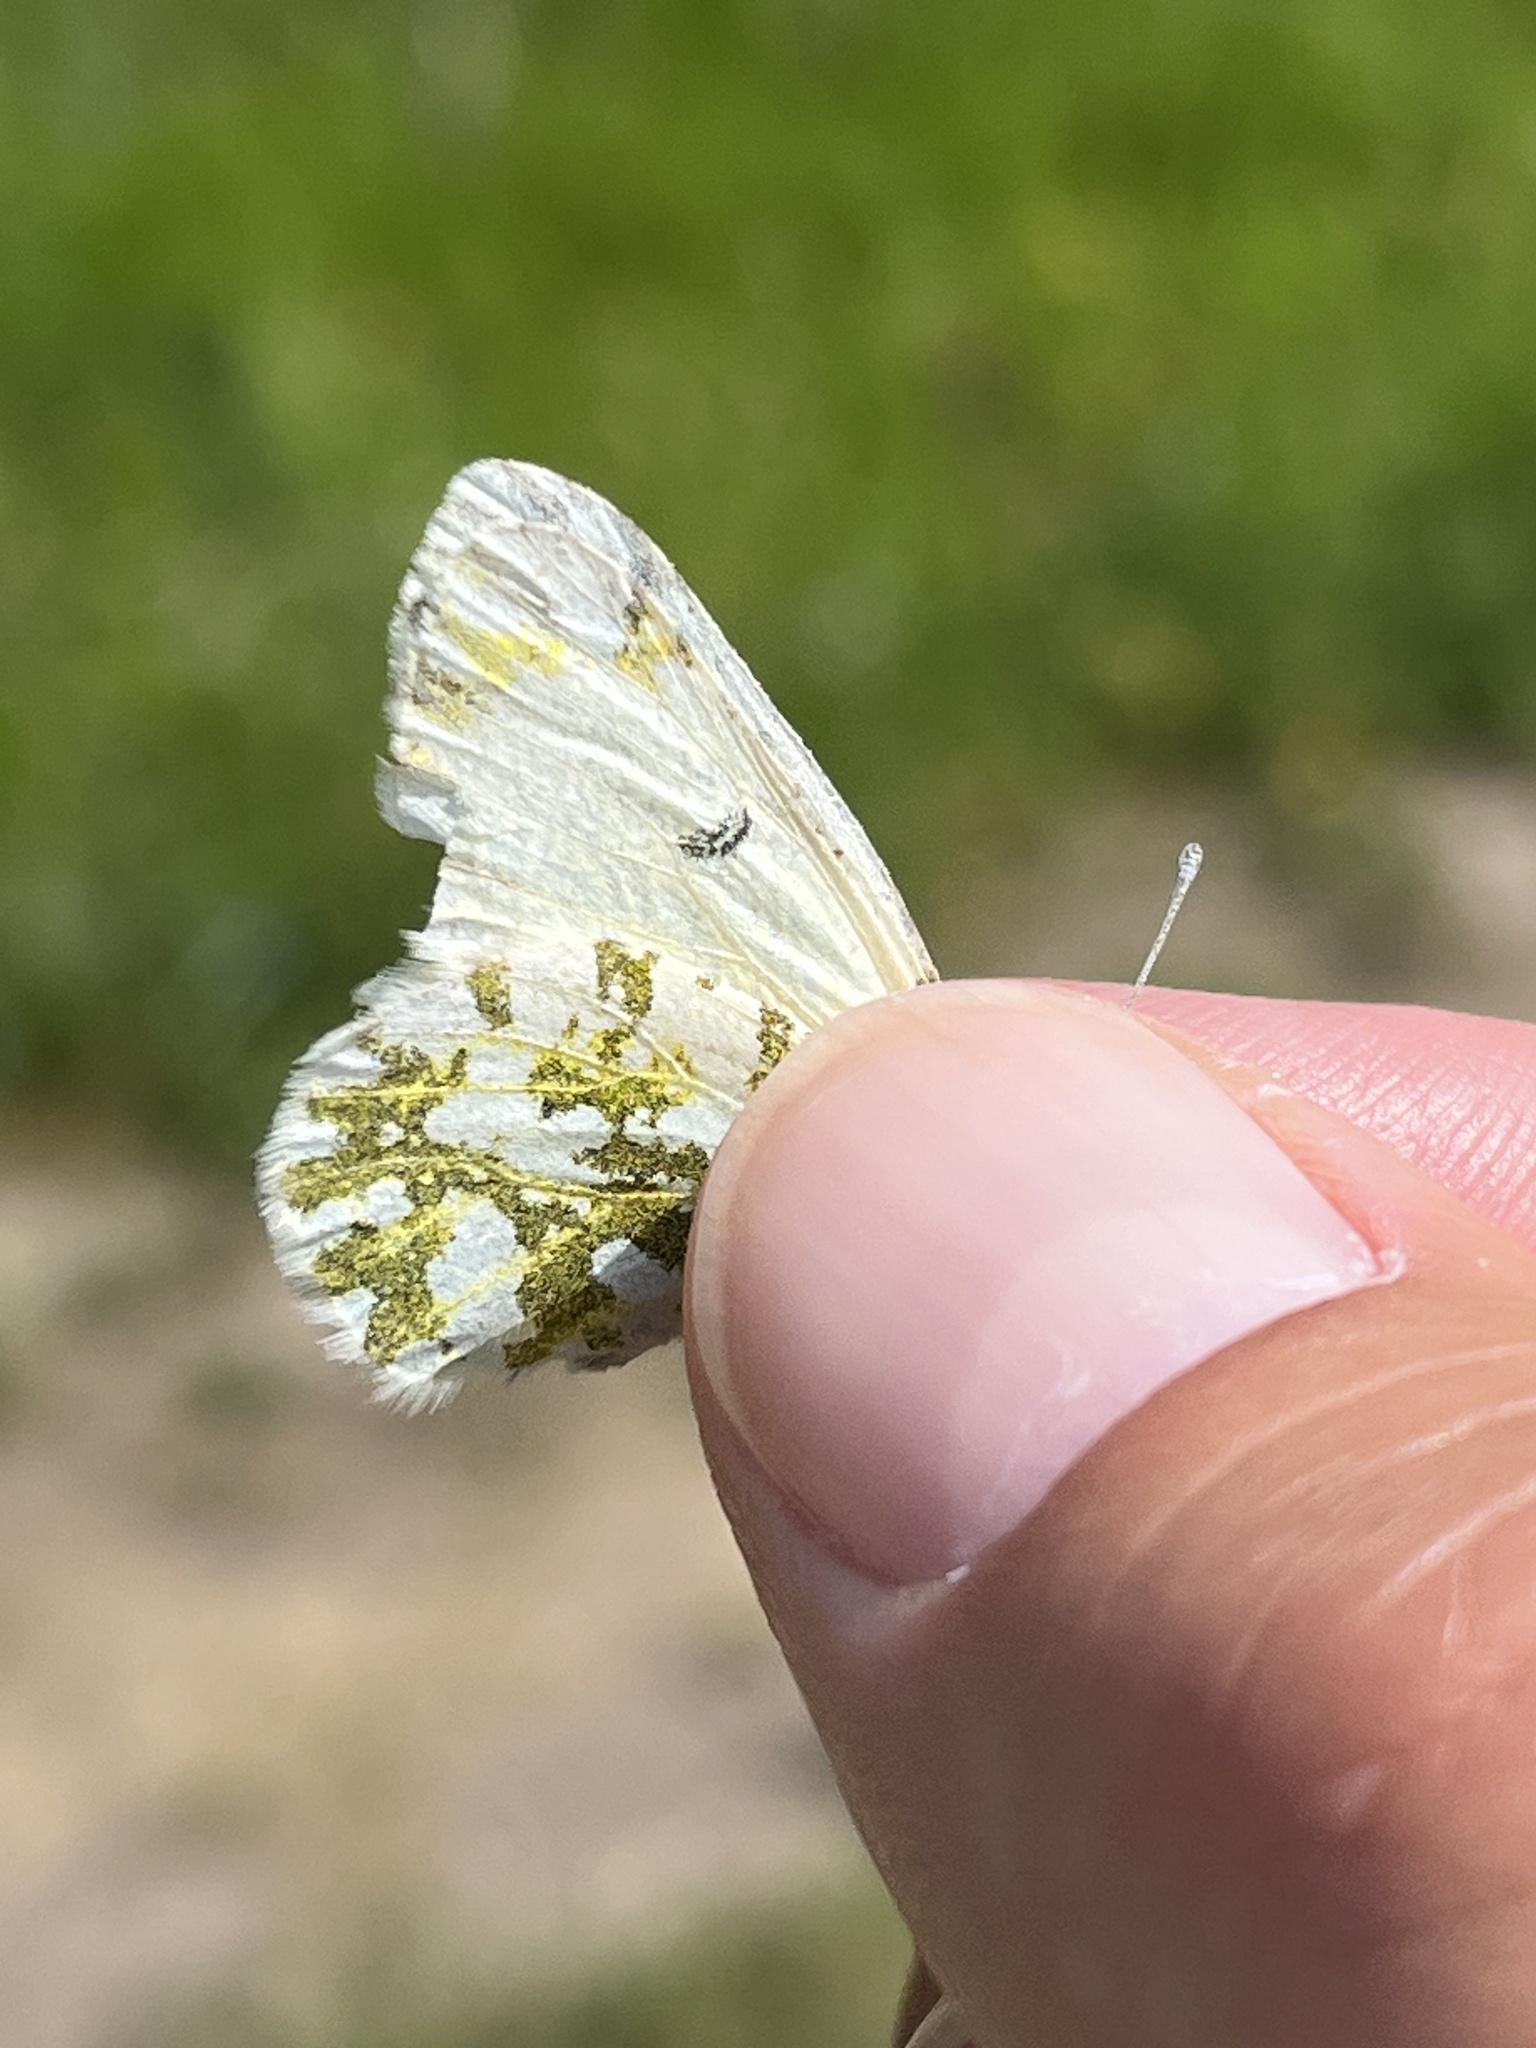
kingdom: Animalia
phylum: Arthropoda
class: Insecta
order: Lepidoptera
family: Pieridae
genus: Euchloe
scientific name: Euchloe ausonides
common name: Creamy marblewing
